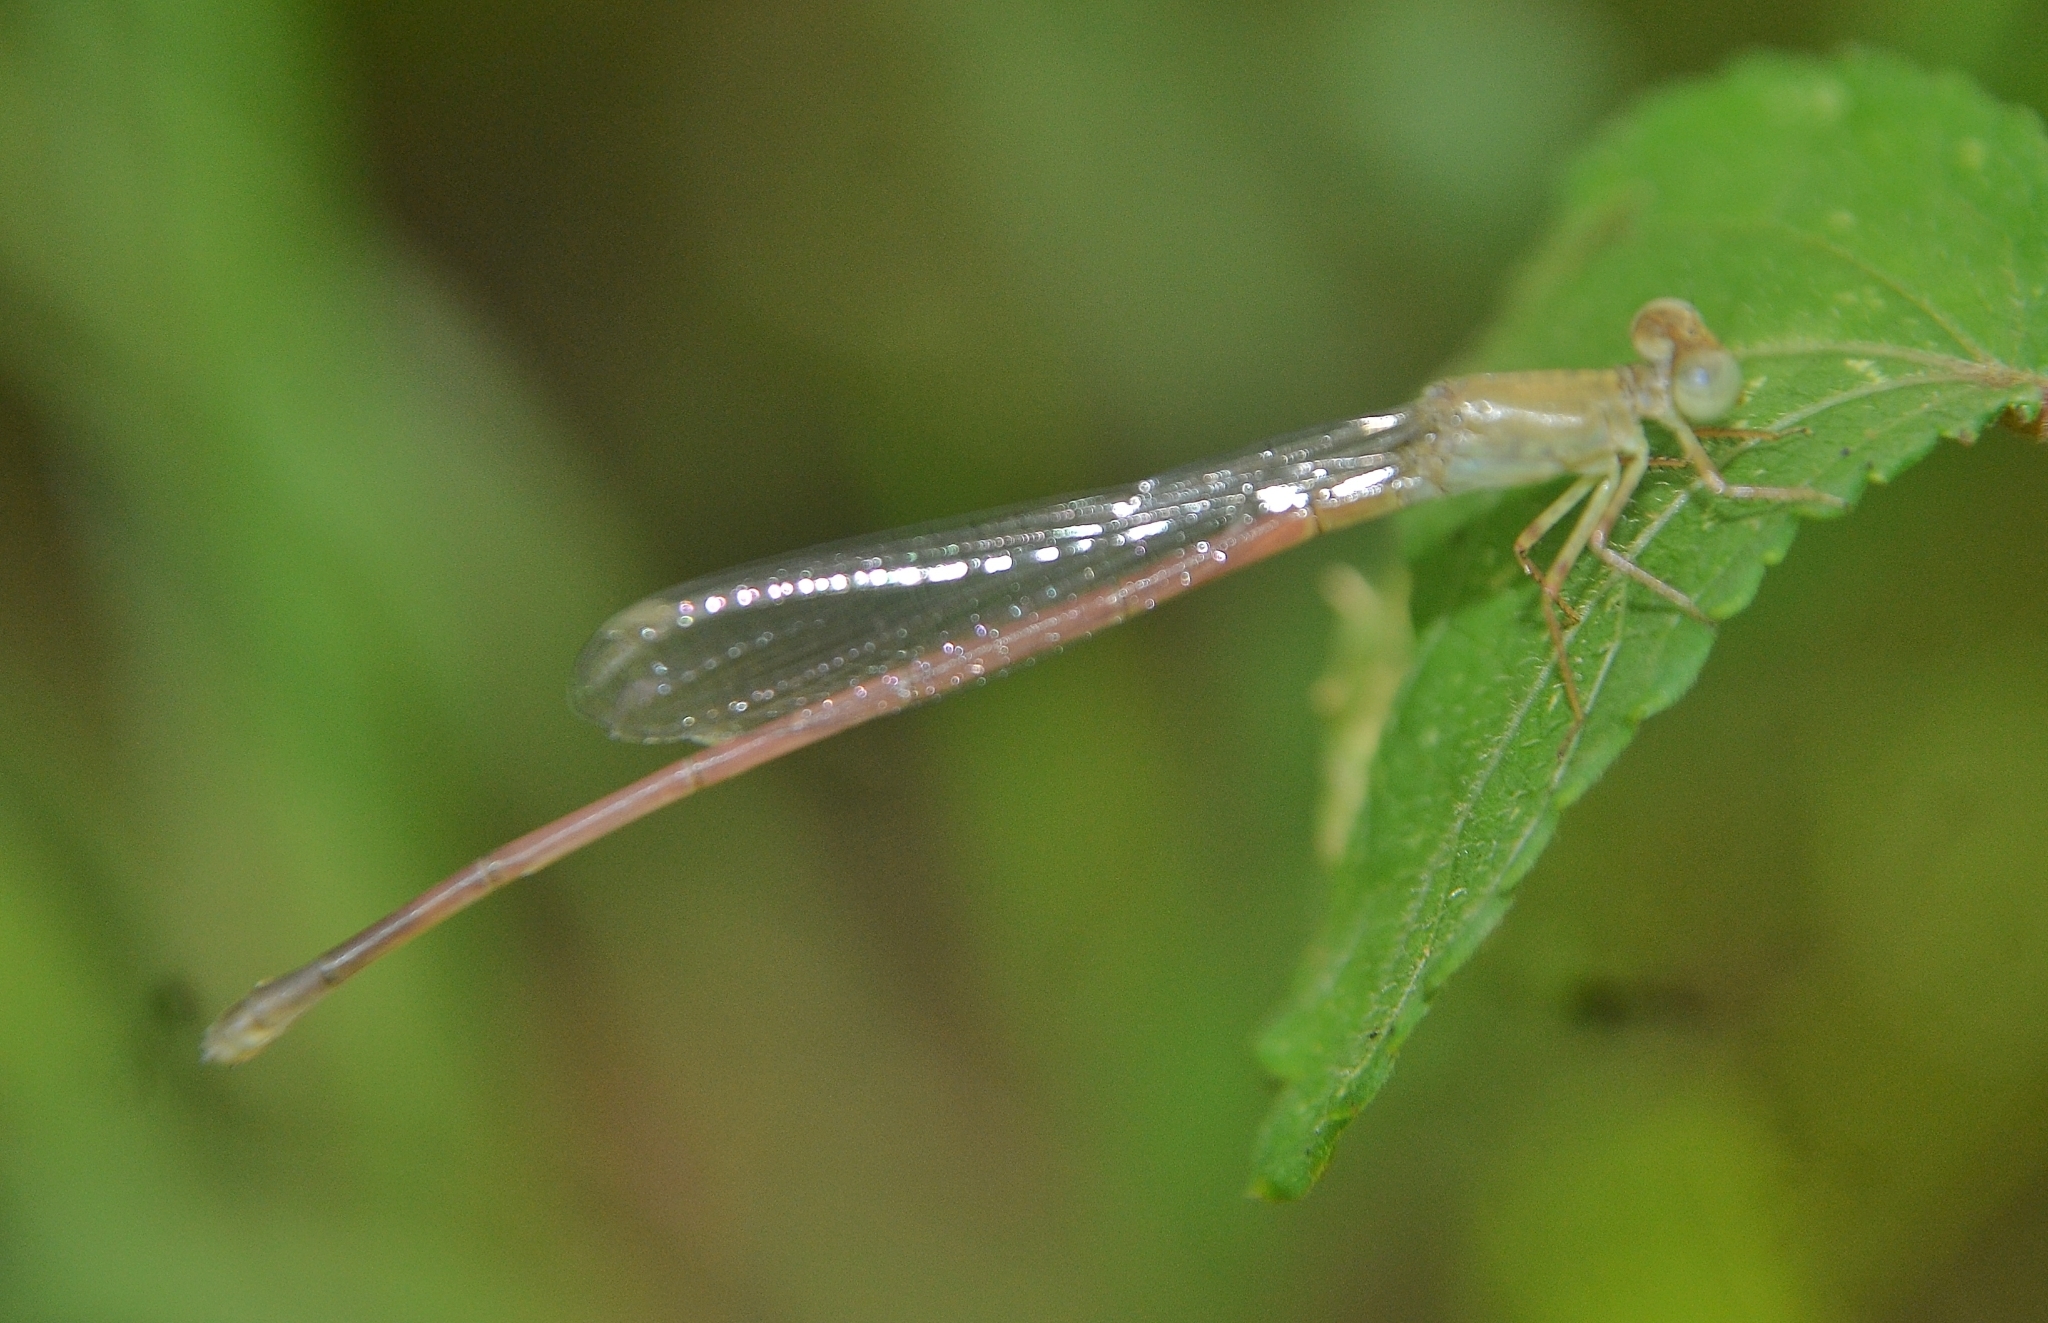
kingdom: Animalia
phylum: Arthropoda
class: Insecta
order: Odonata
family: Coenagrionidae
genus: Ceriagrion
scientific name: Ceriagrion olivaceum
